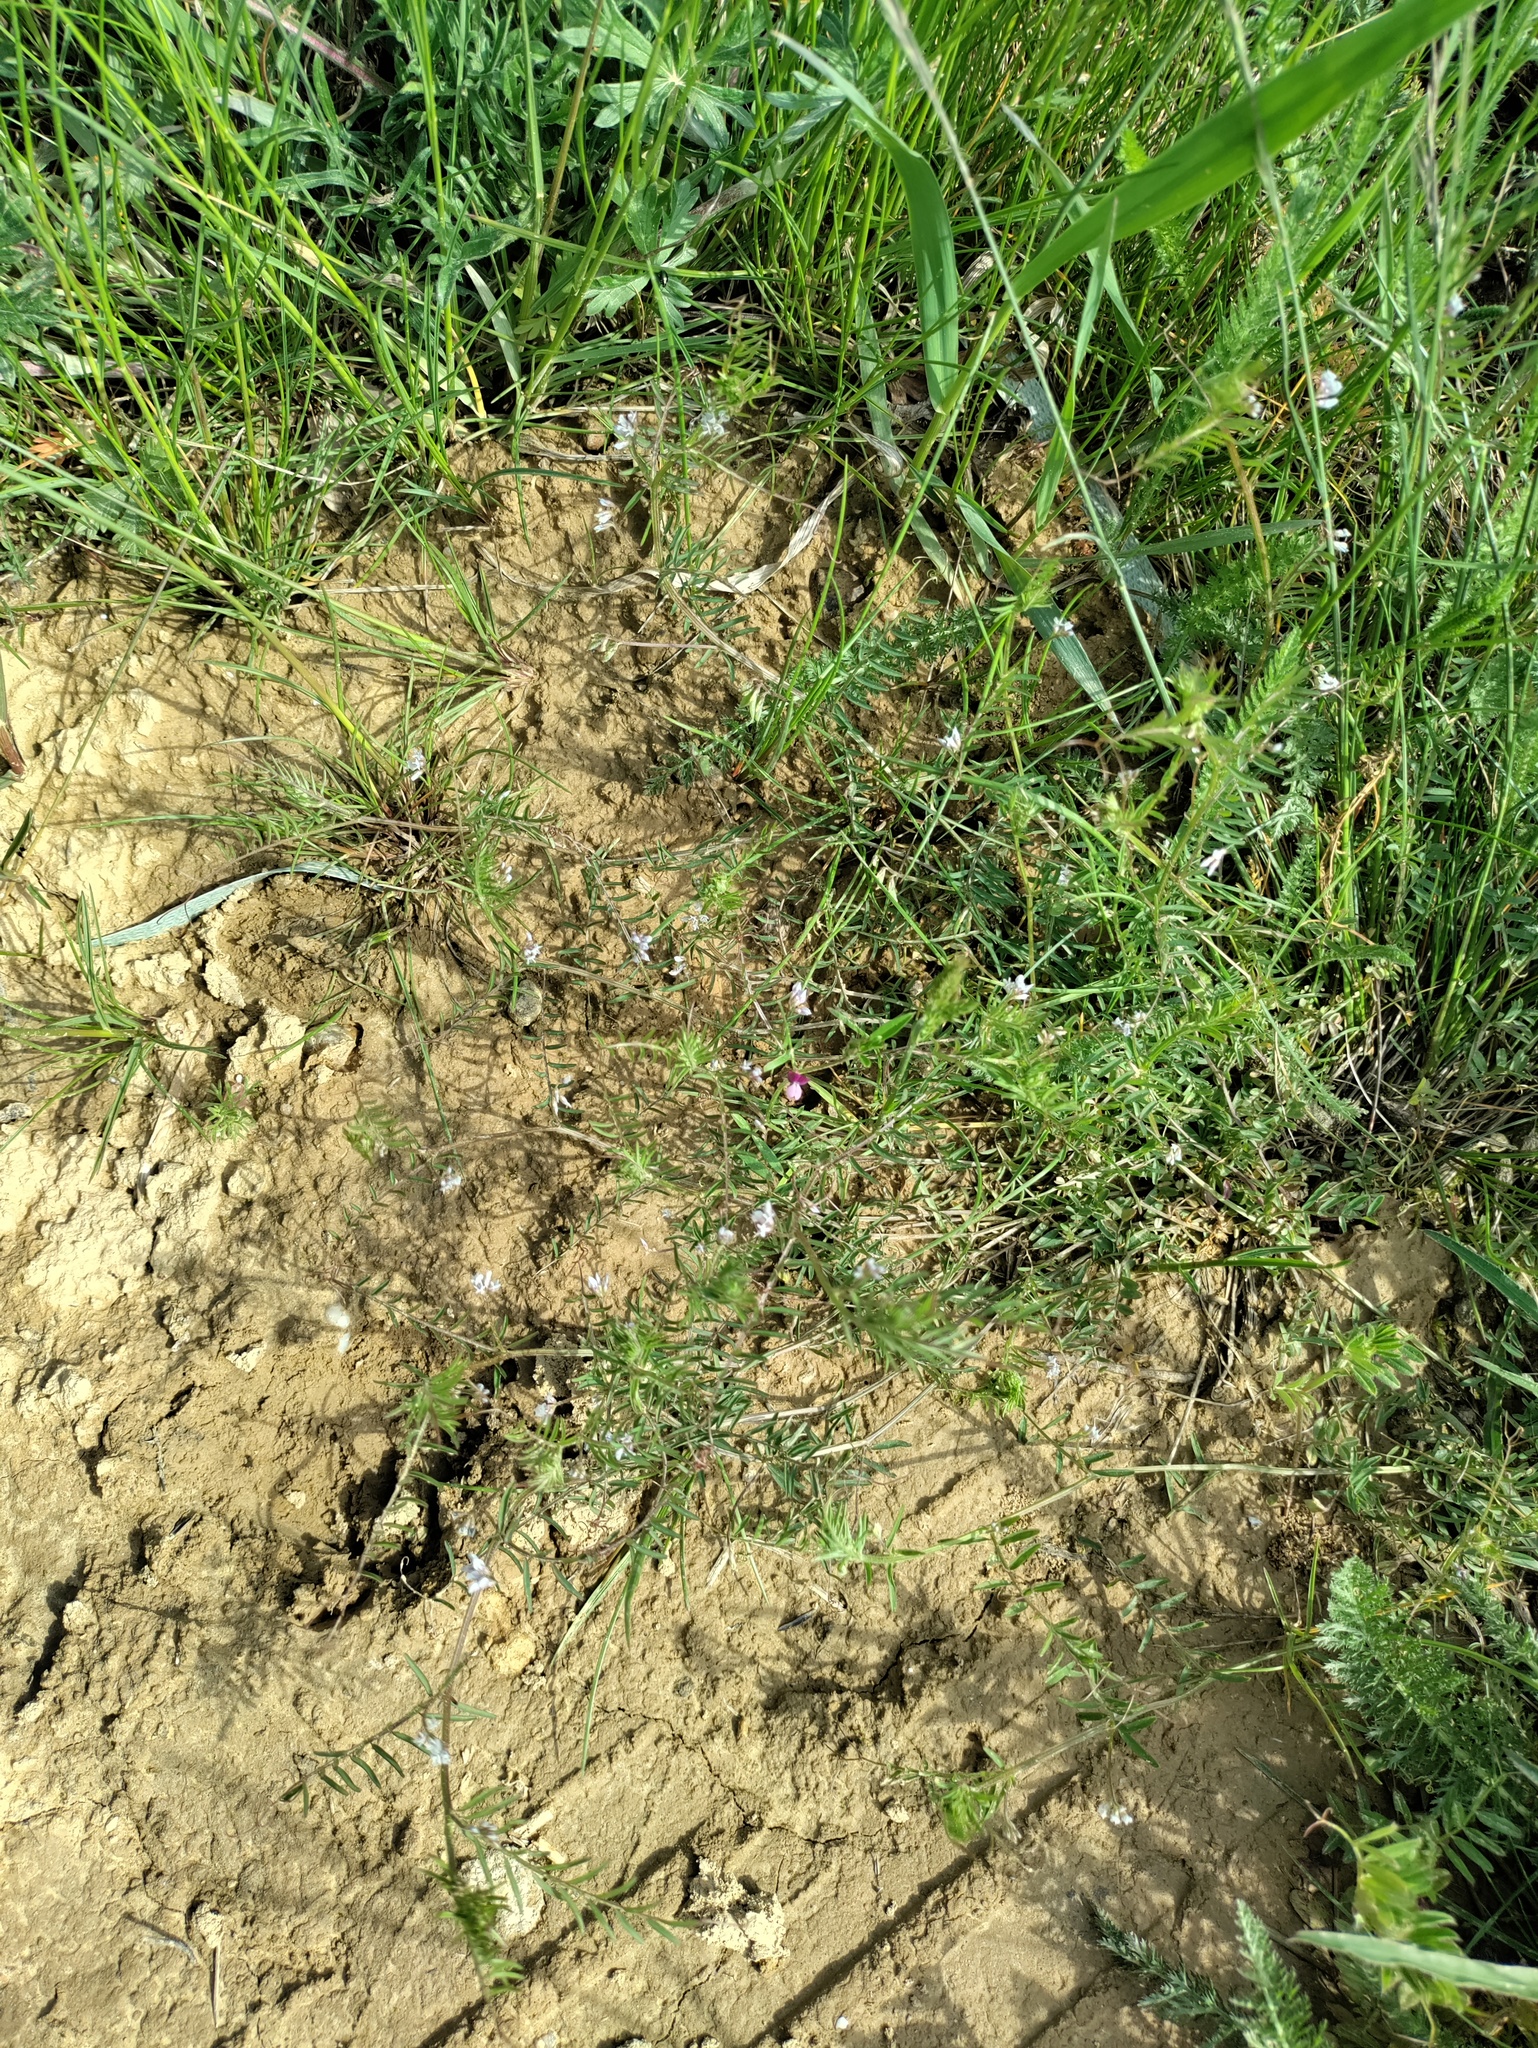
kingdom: Plantae
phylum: Tracheophyta
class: Magnoliopsida
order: Fabales
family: Fabaceae
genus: Vicia
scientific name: Vicia hirsuta
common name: Tiny vetch
